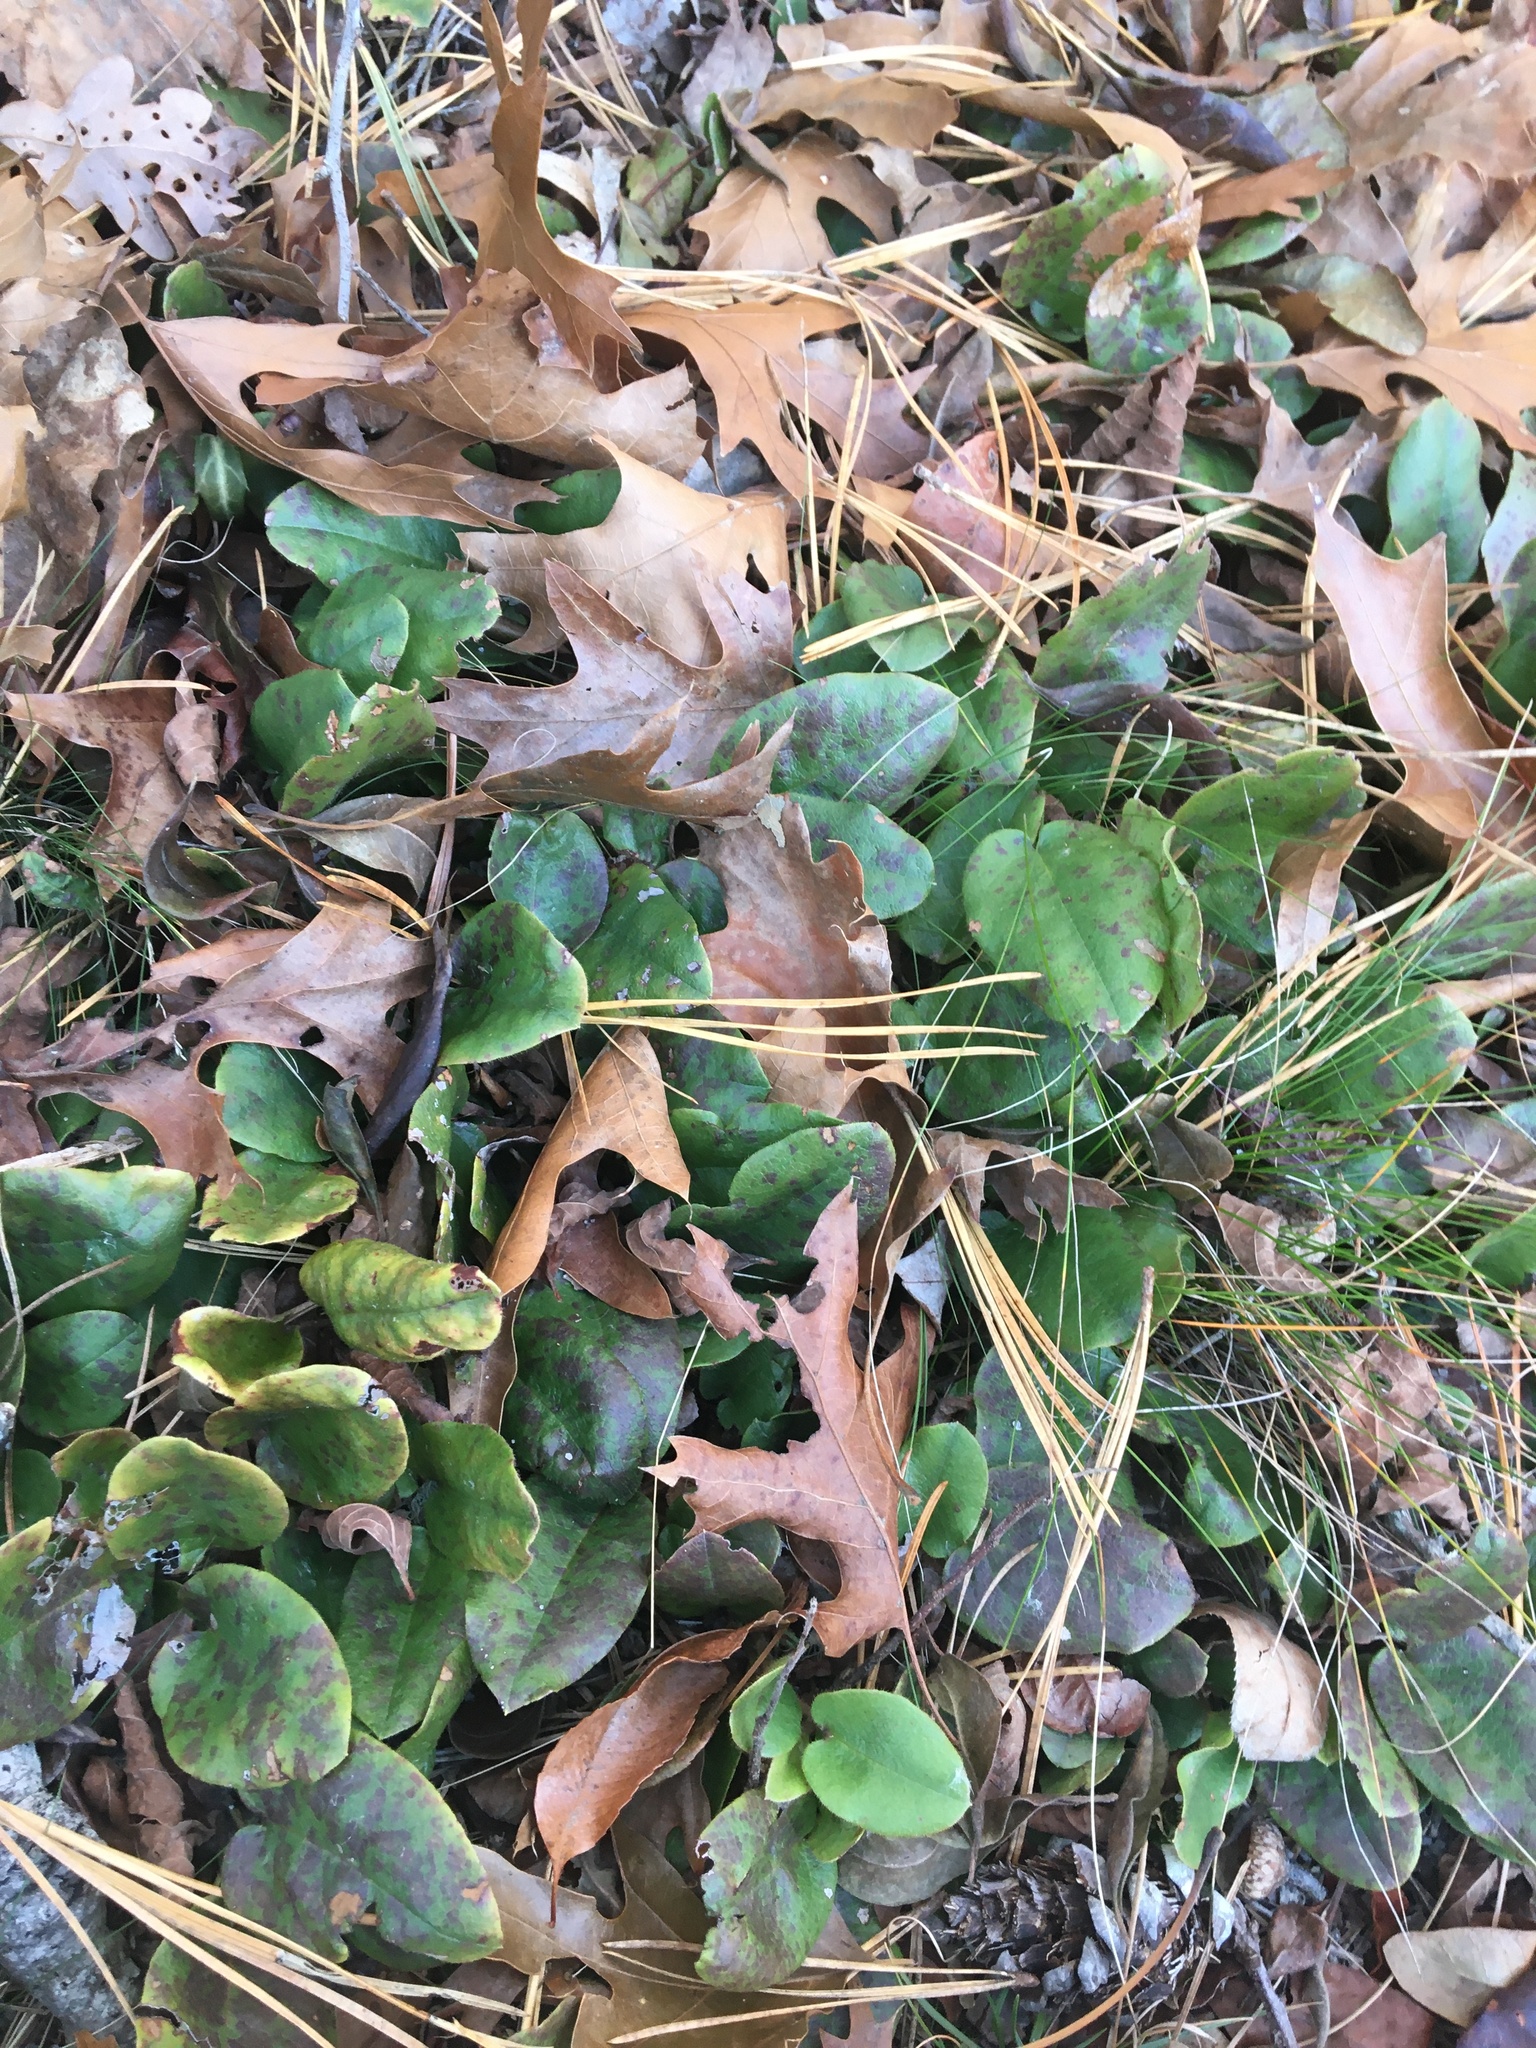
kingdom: Plantae
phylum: Tracheophyta
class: Magnoliopsida
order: Ericales
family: Ericaceae
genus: Epigaea
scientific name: Epigaea repens
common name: Gravelroot
